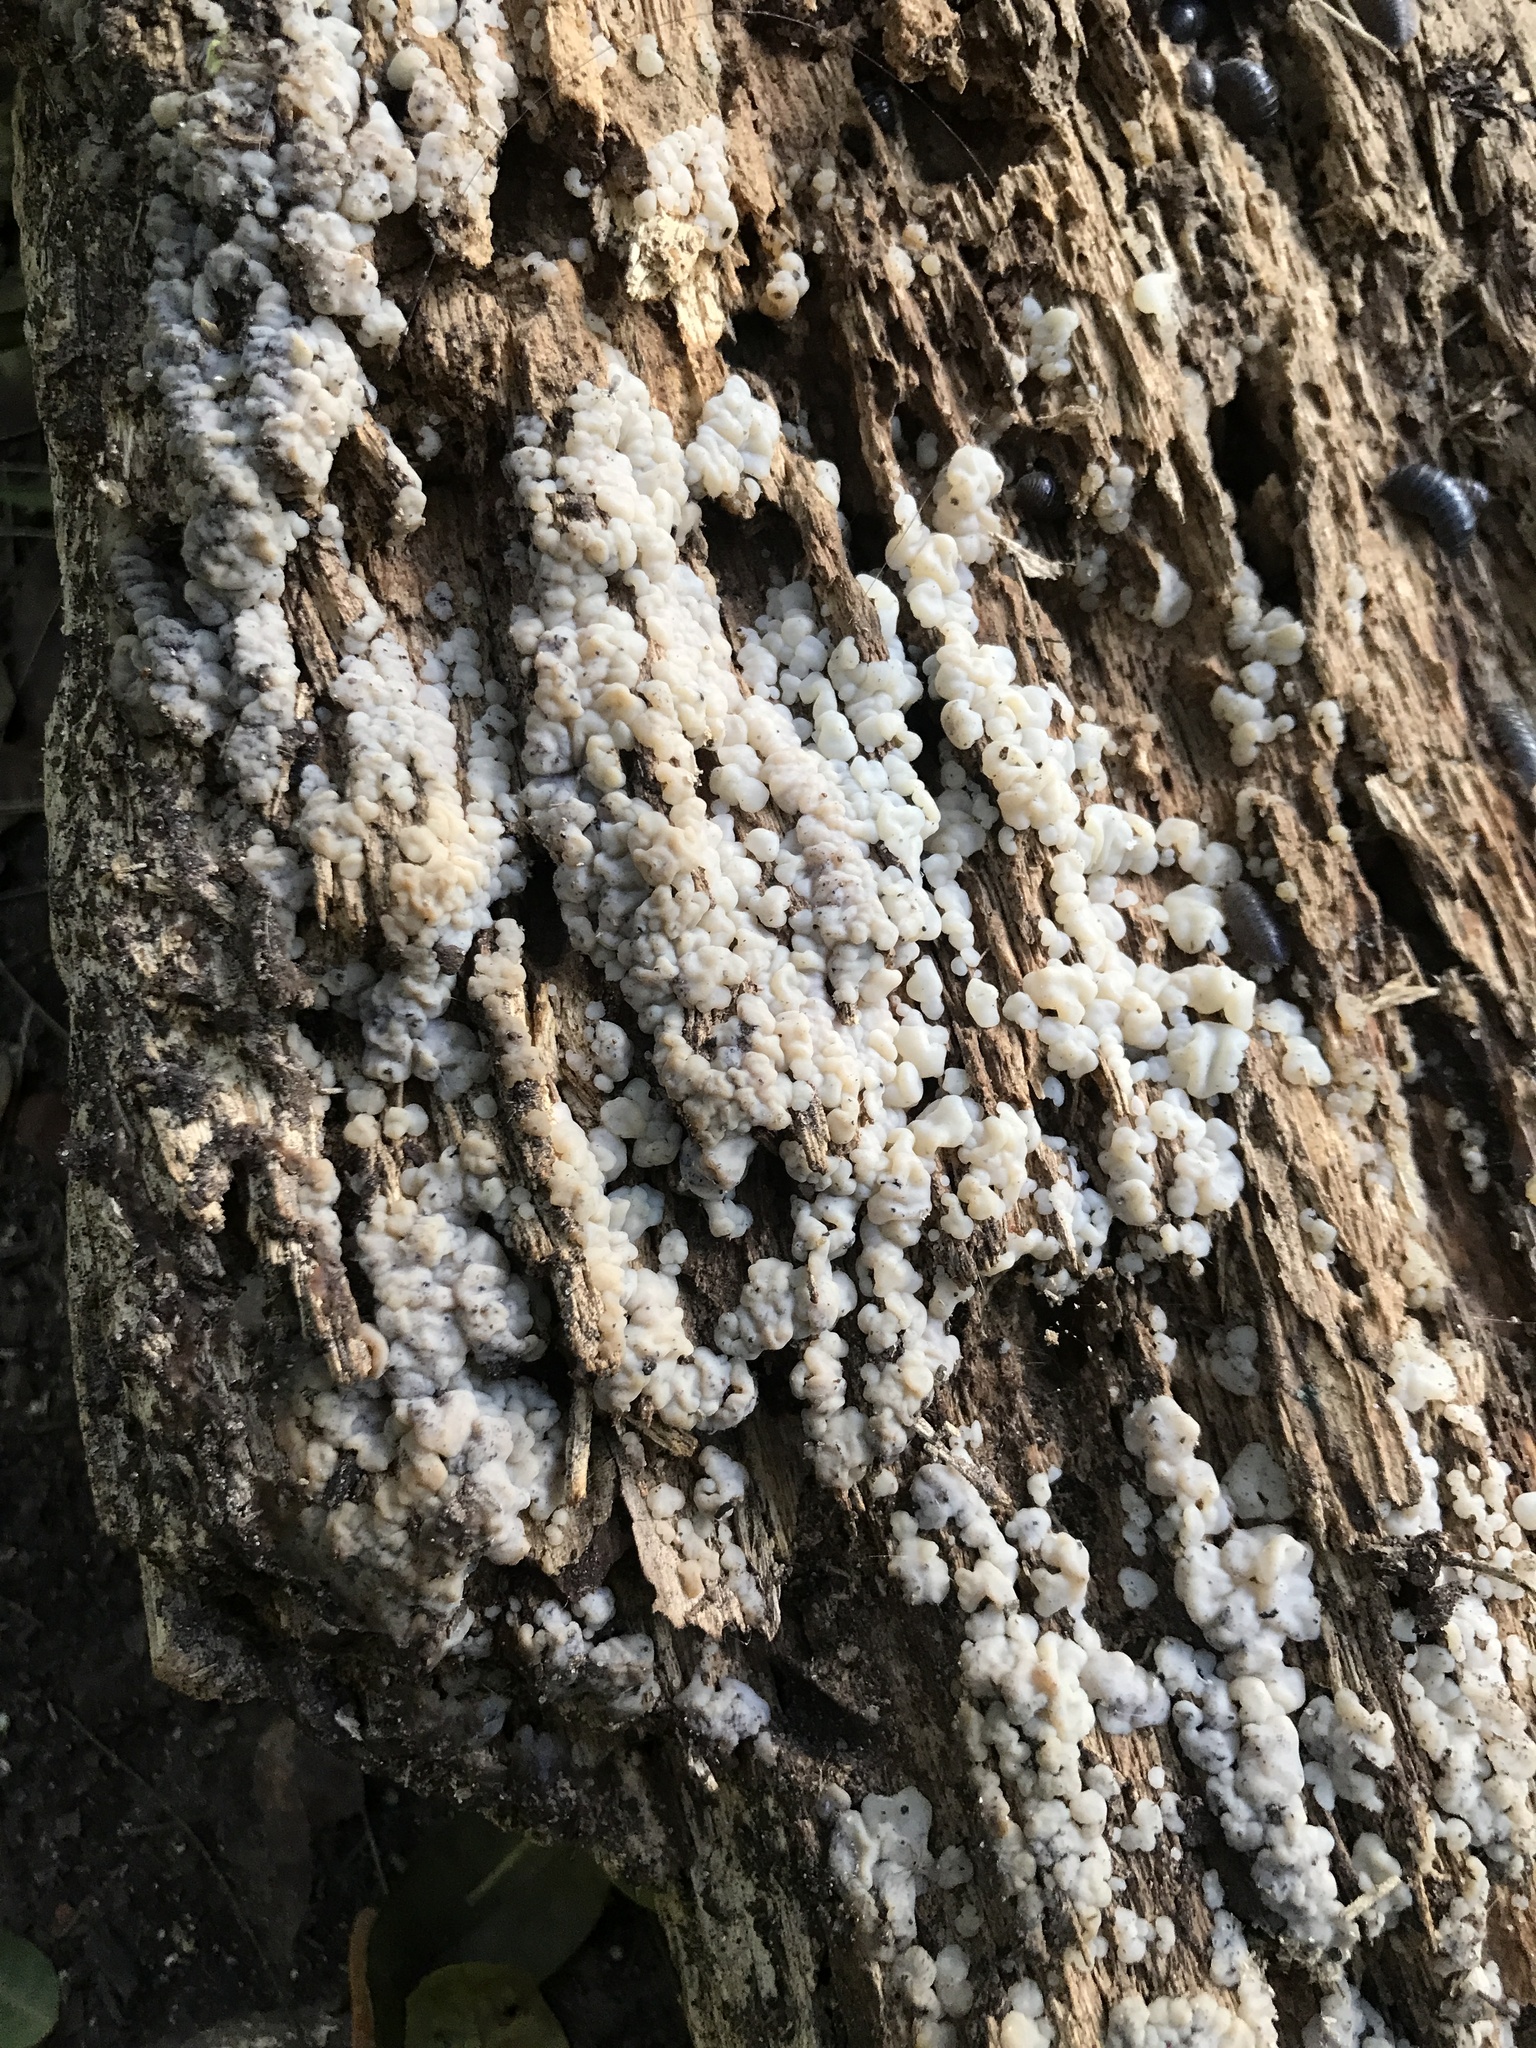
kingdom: Fungi
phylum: Basidiomycota
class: Agaricomycetes
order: Auriculariales
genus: Ductifera
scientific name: Ductifera pululahuana
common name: White jelly fungus
